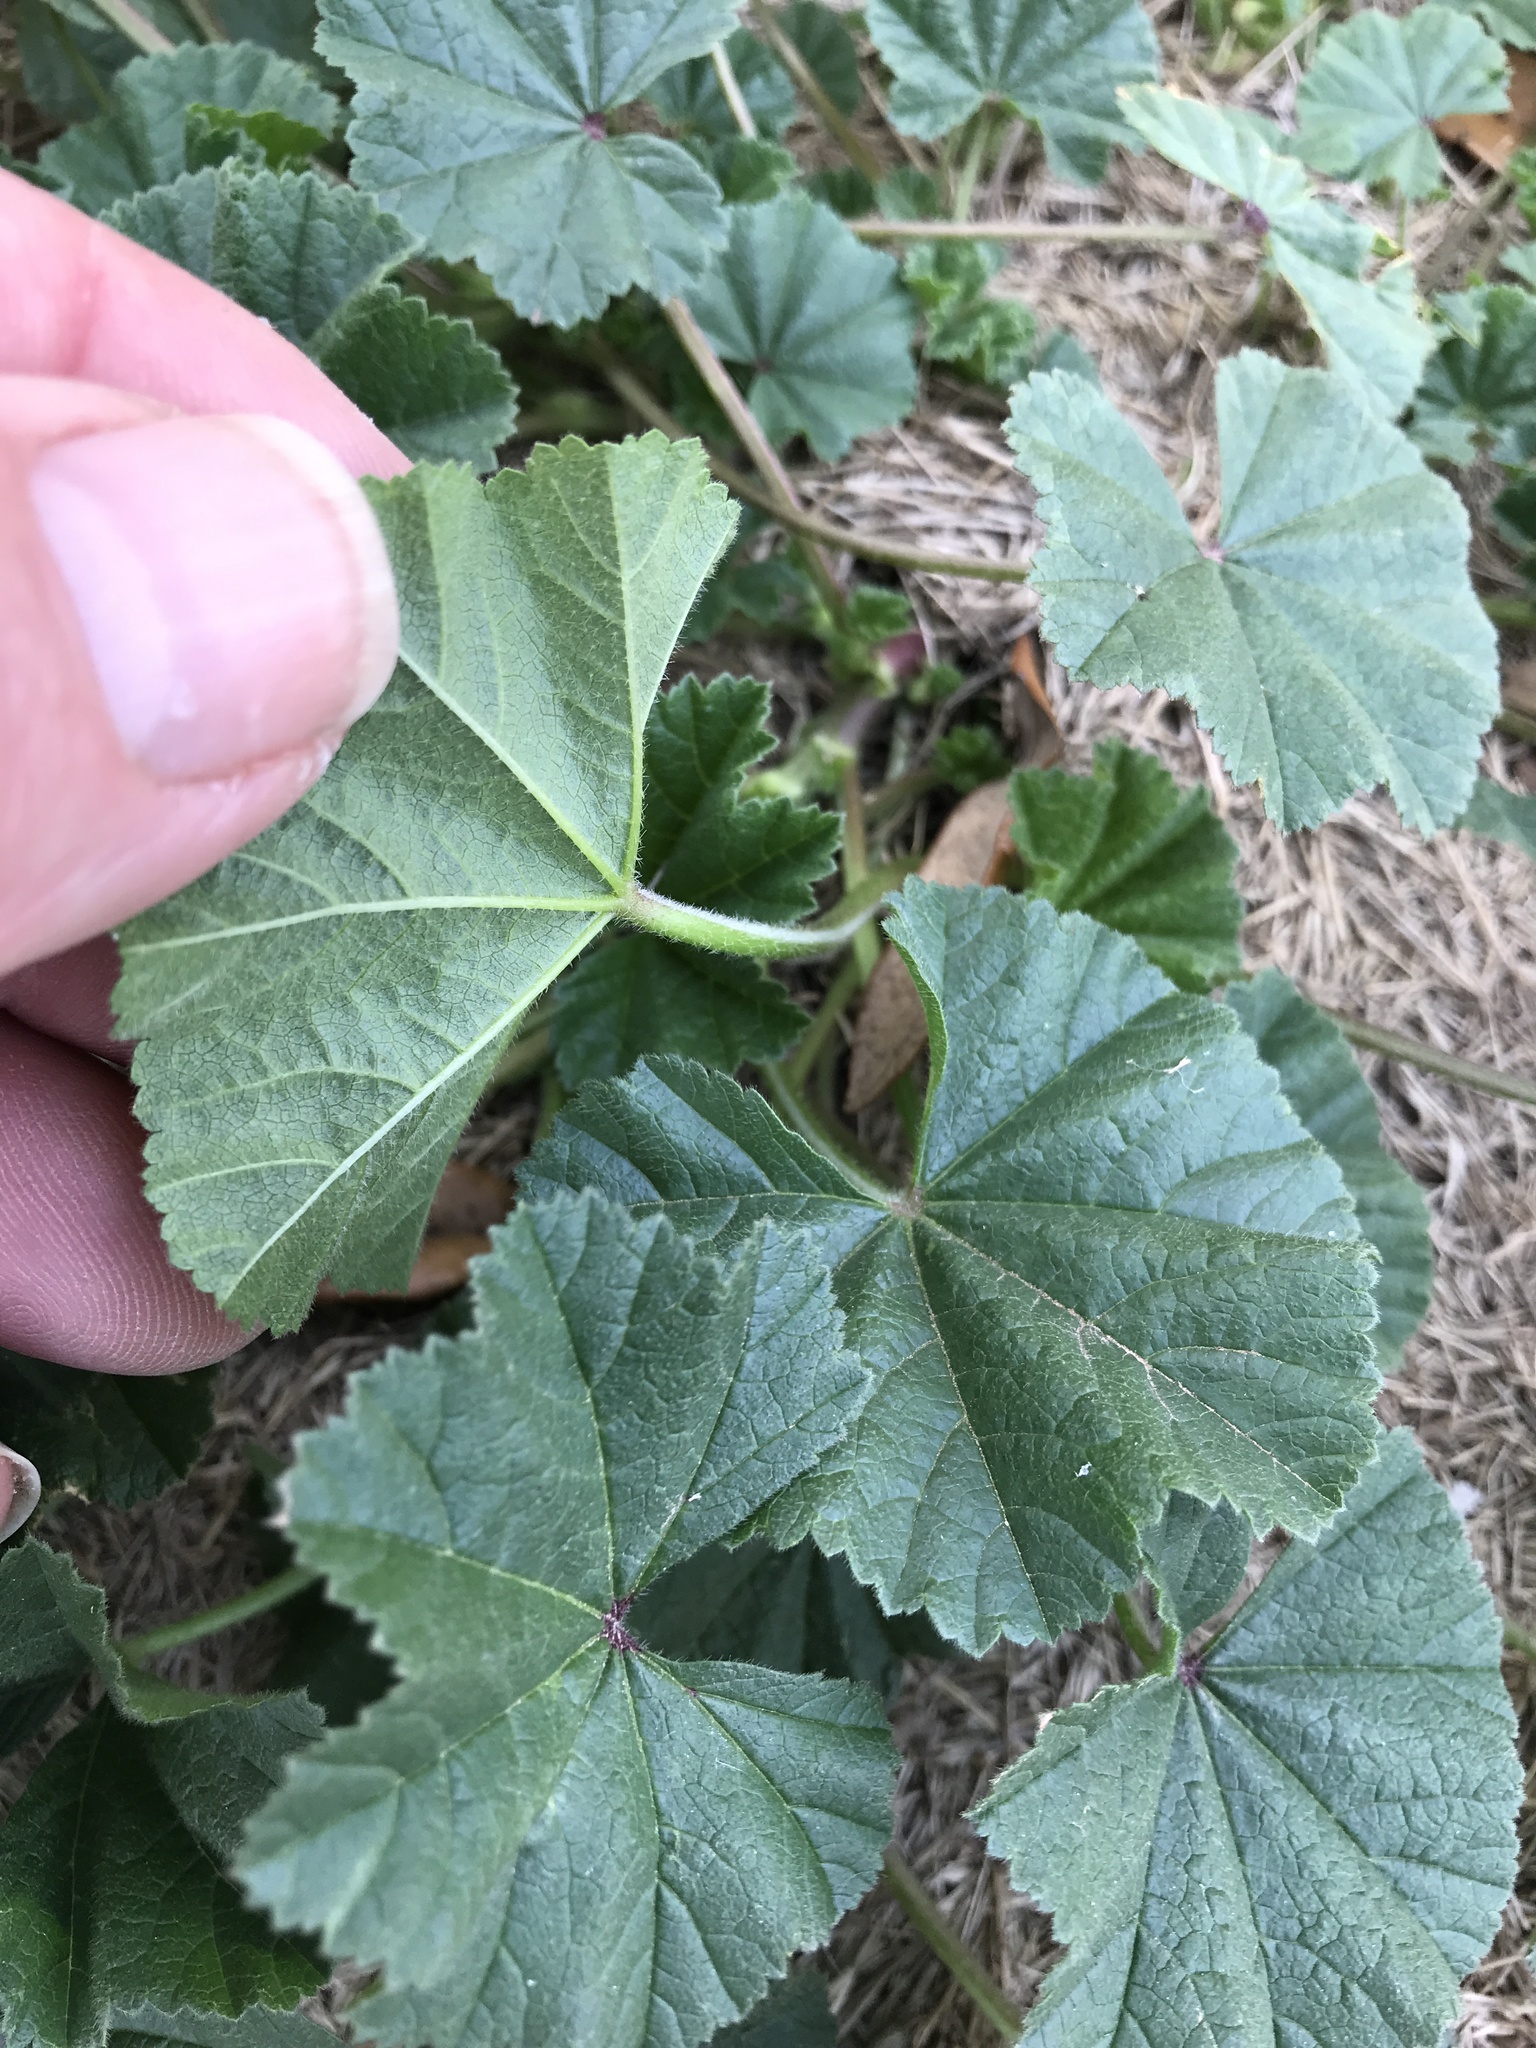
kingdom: Plantae
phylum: Tracheophyta
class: Magnoliopsida
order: Malvales
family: Malvaceae
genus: Malva
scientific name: Malva parviflora
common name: Least mallow
